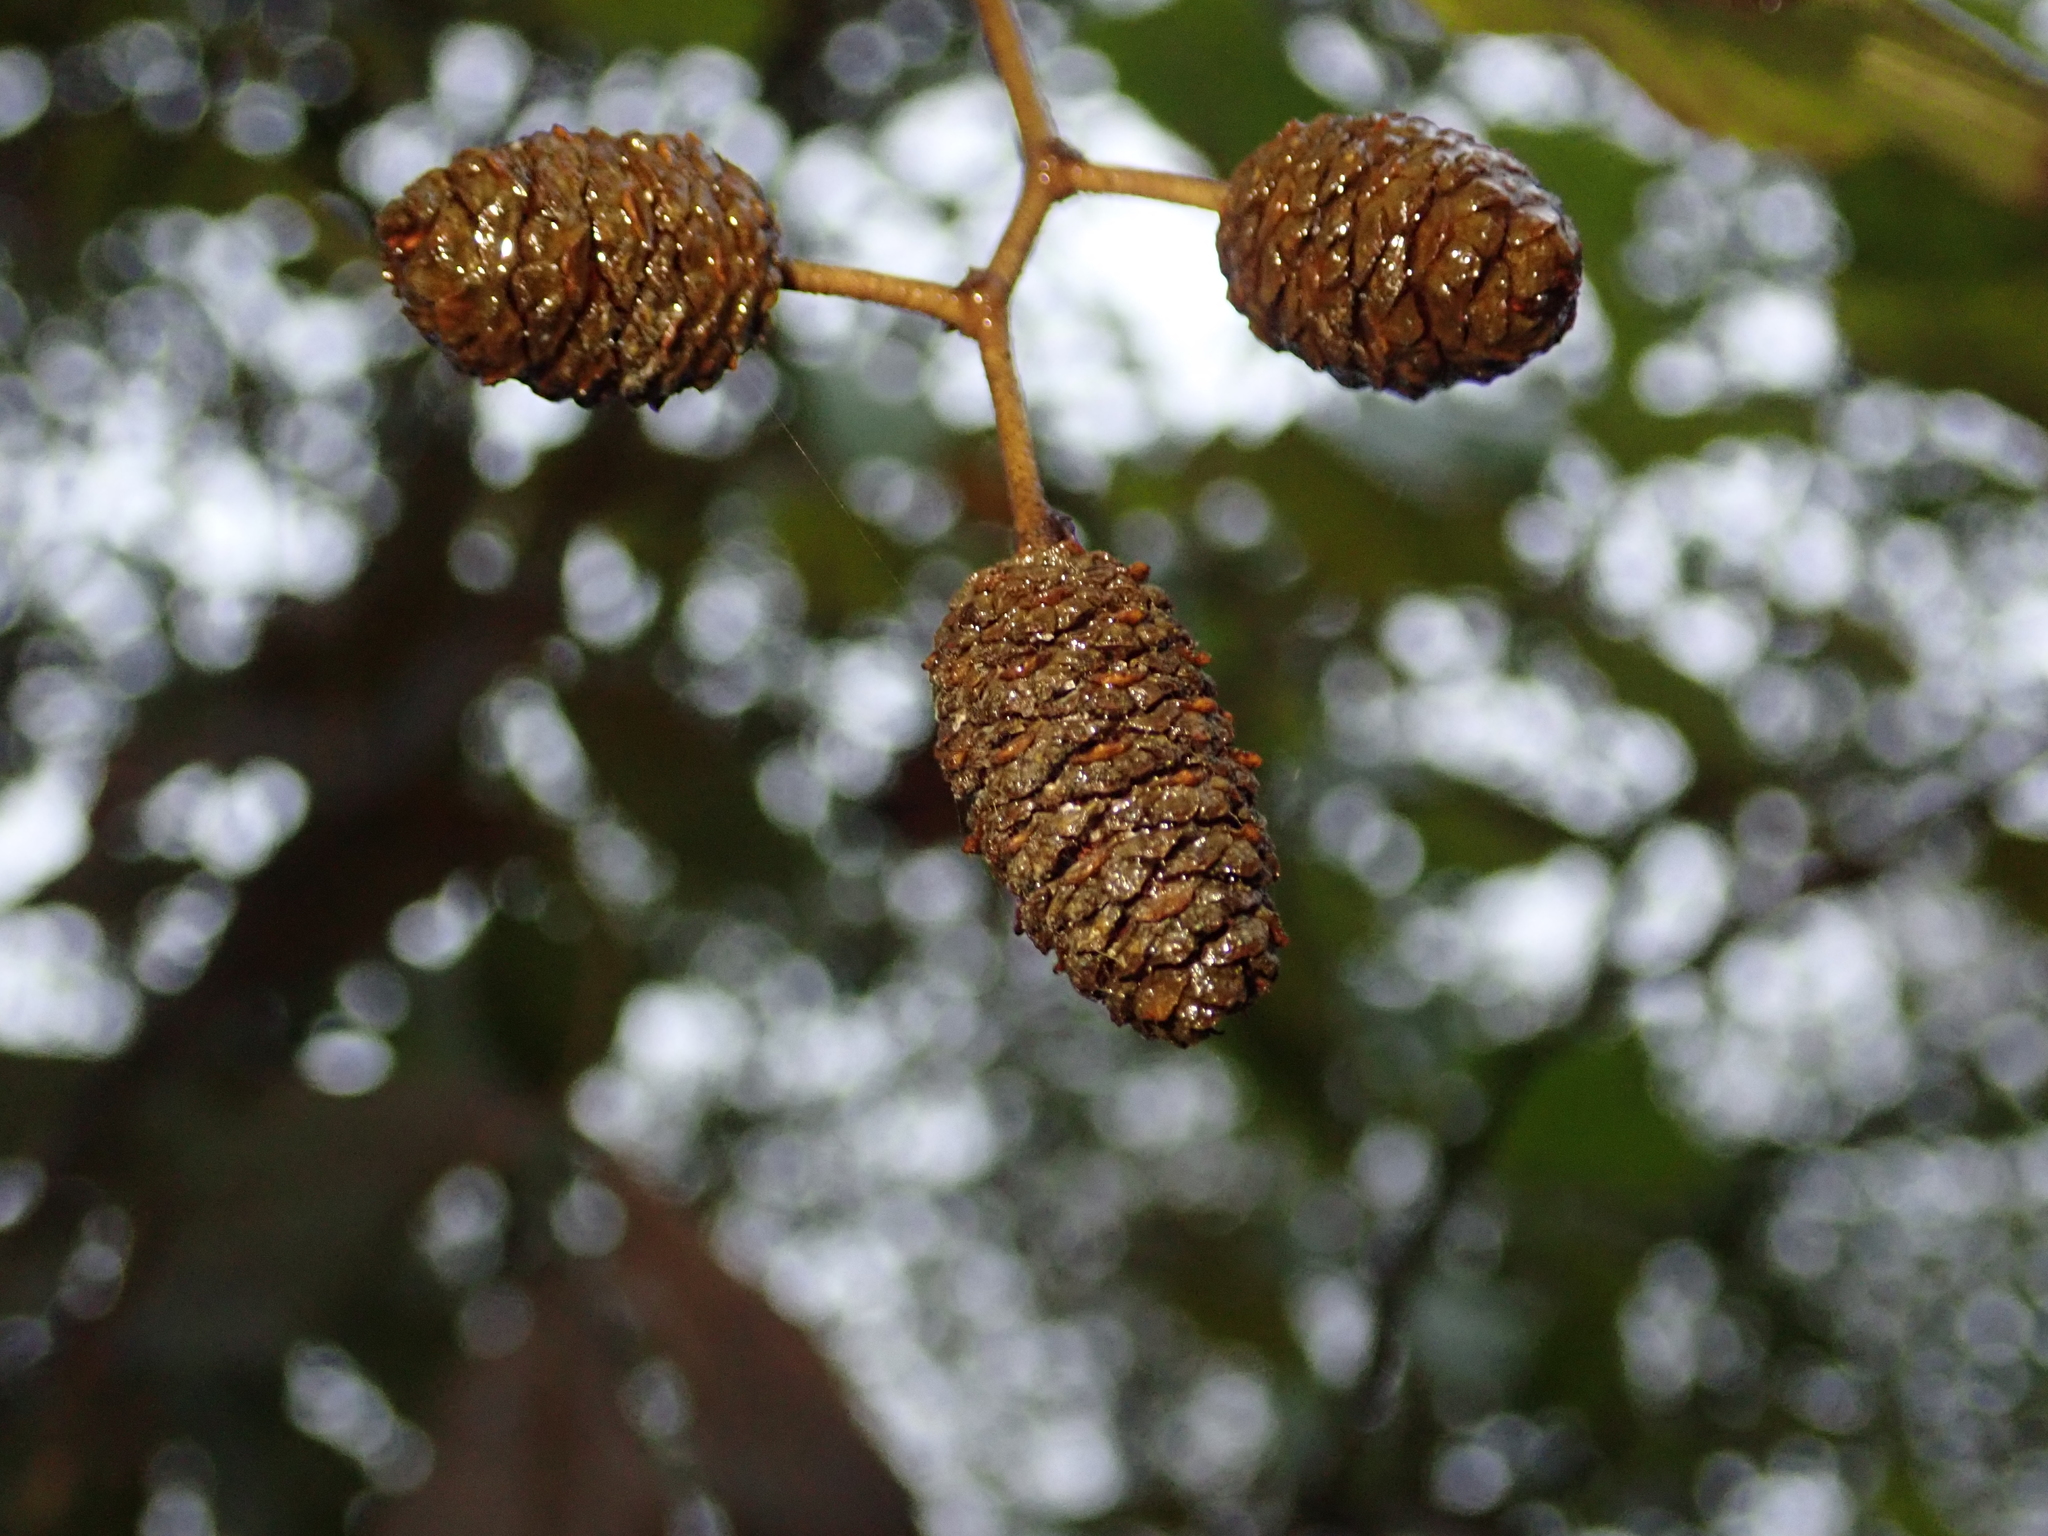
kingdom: Plantae
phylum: Tracheophyta
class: Magnoliopsida
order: Fagales
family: Betulaceae
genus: Alnus
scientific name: Alnus glutinosa
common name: Black alder
